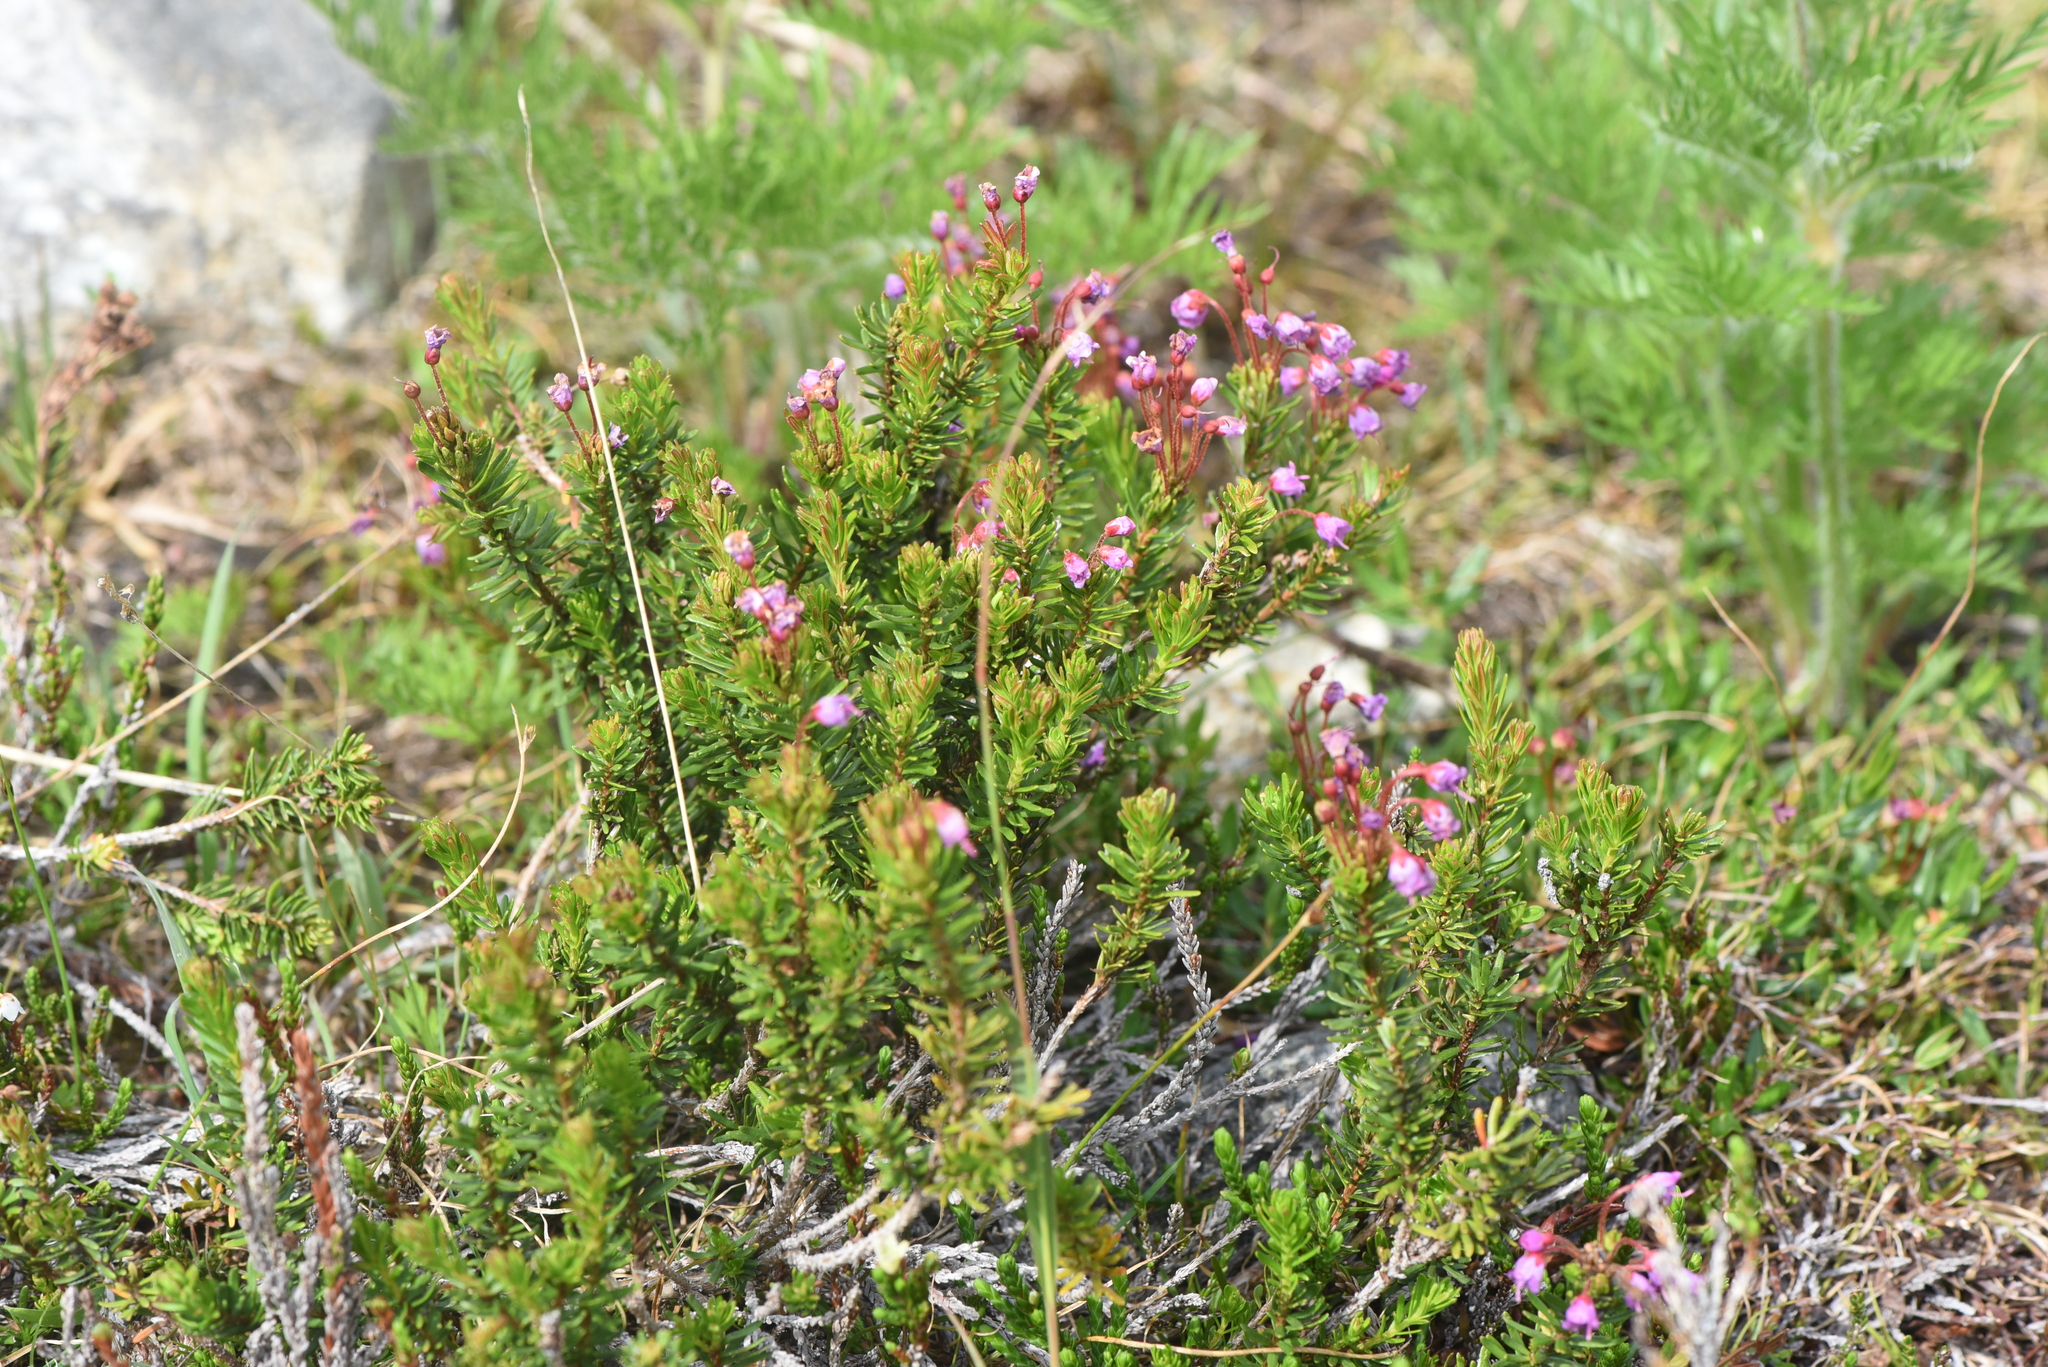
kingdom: Plantae
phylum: Tracheophyta
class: Magnoliopsida
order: Ericales
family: Ericaceae
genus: Phyllodoce
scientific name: Phyllodoce empetriformis
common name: Pink mountain heather
